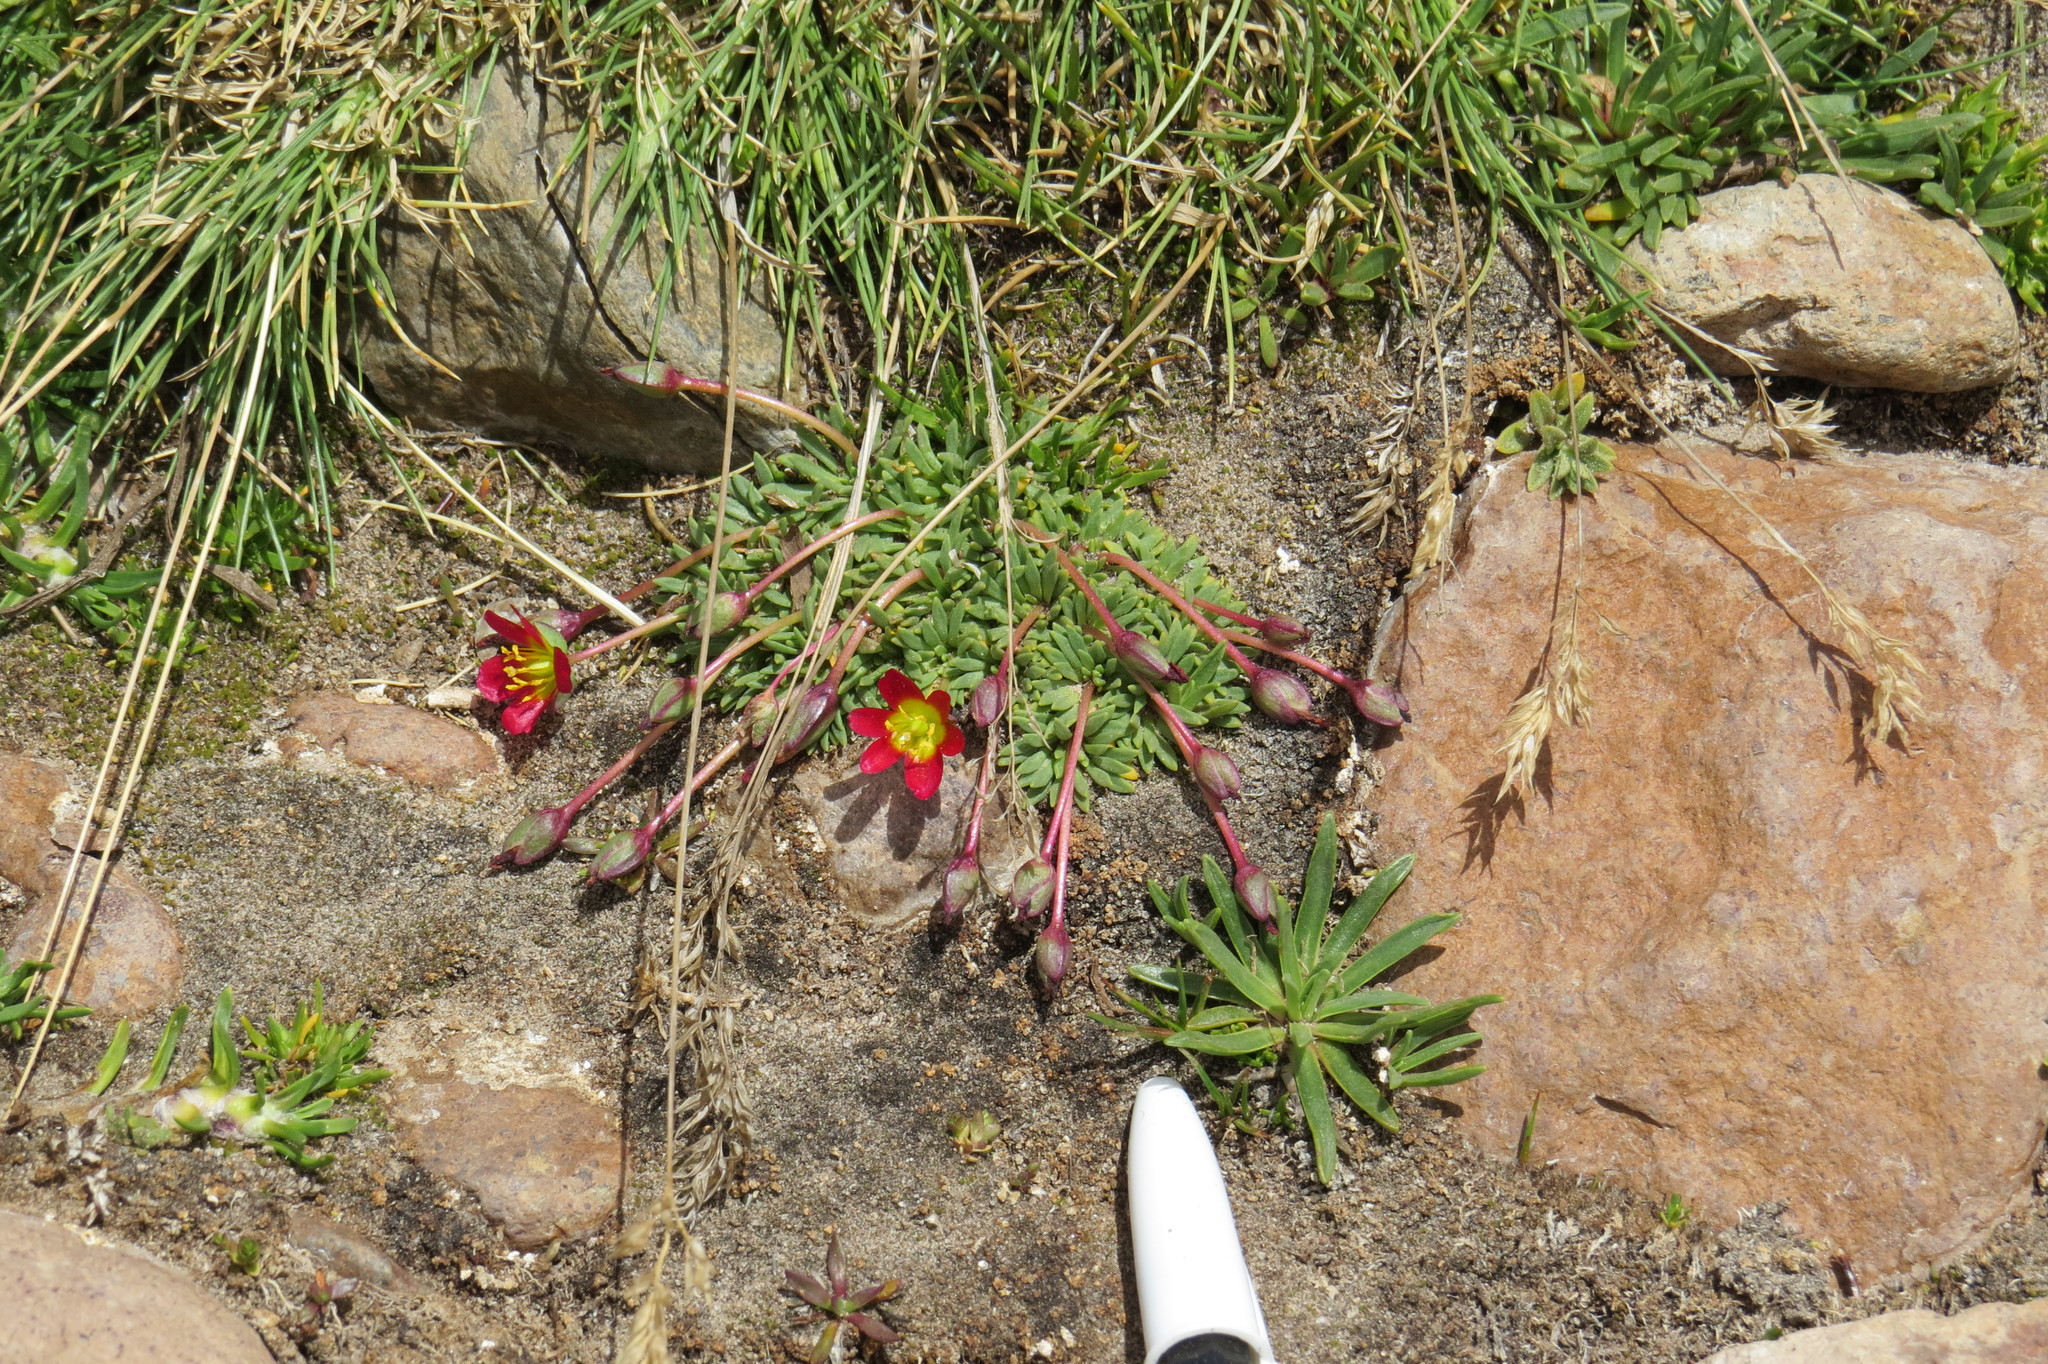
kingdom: Plantae
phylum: Tracheophyta
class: Magnoliopsida
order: Caryophyllales
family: Montiaceae
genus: Calandrinia
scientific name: Calandrinia caespitosa
